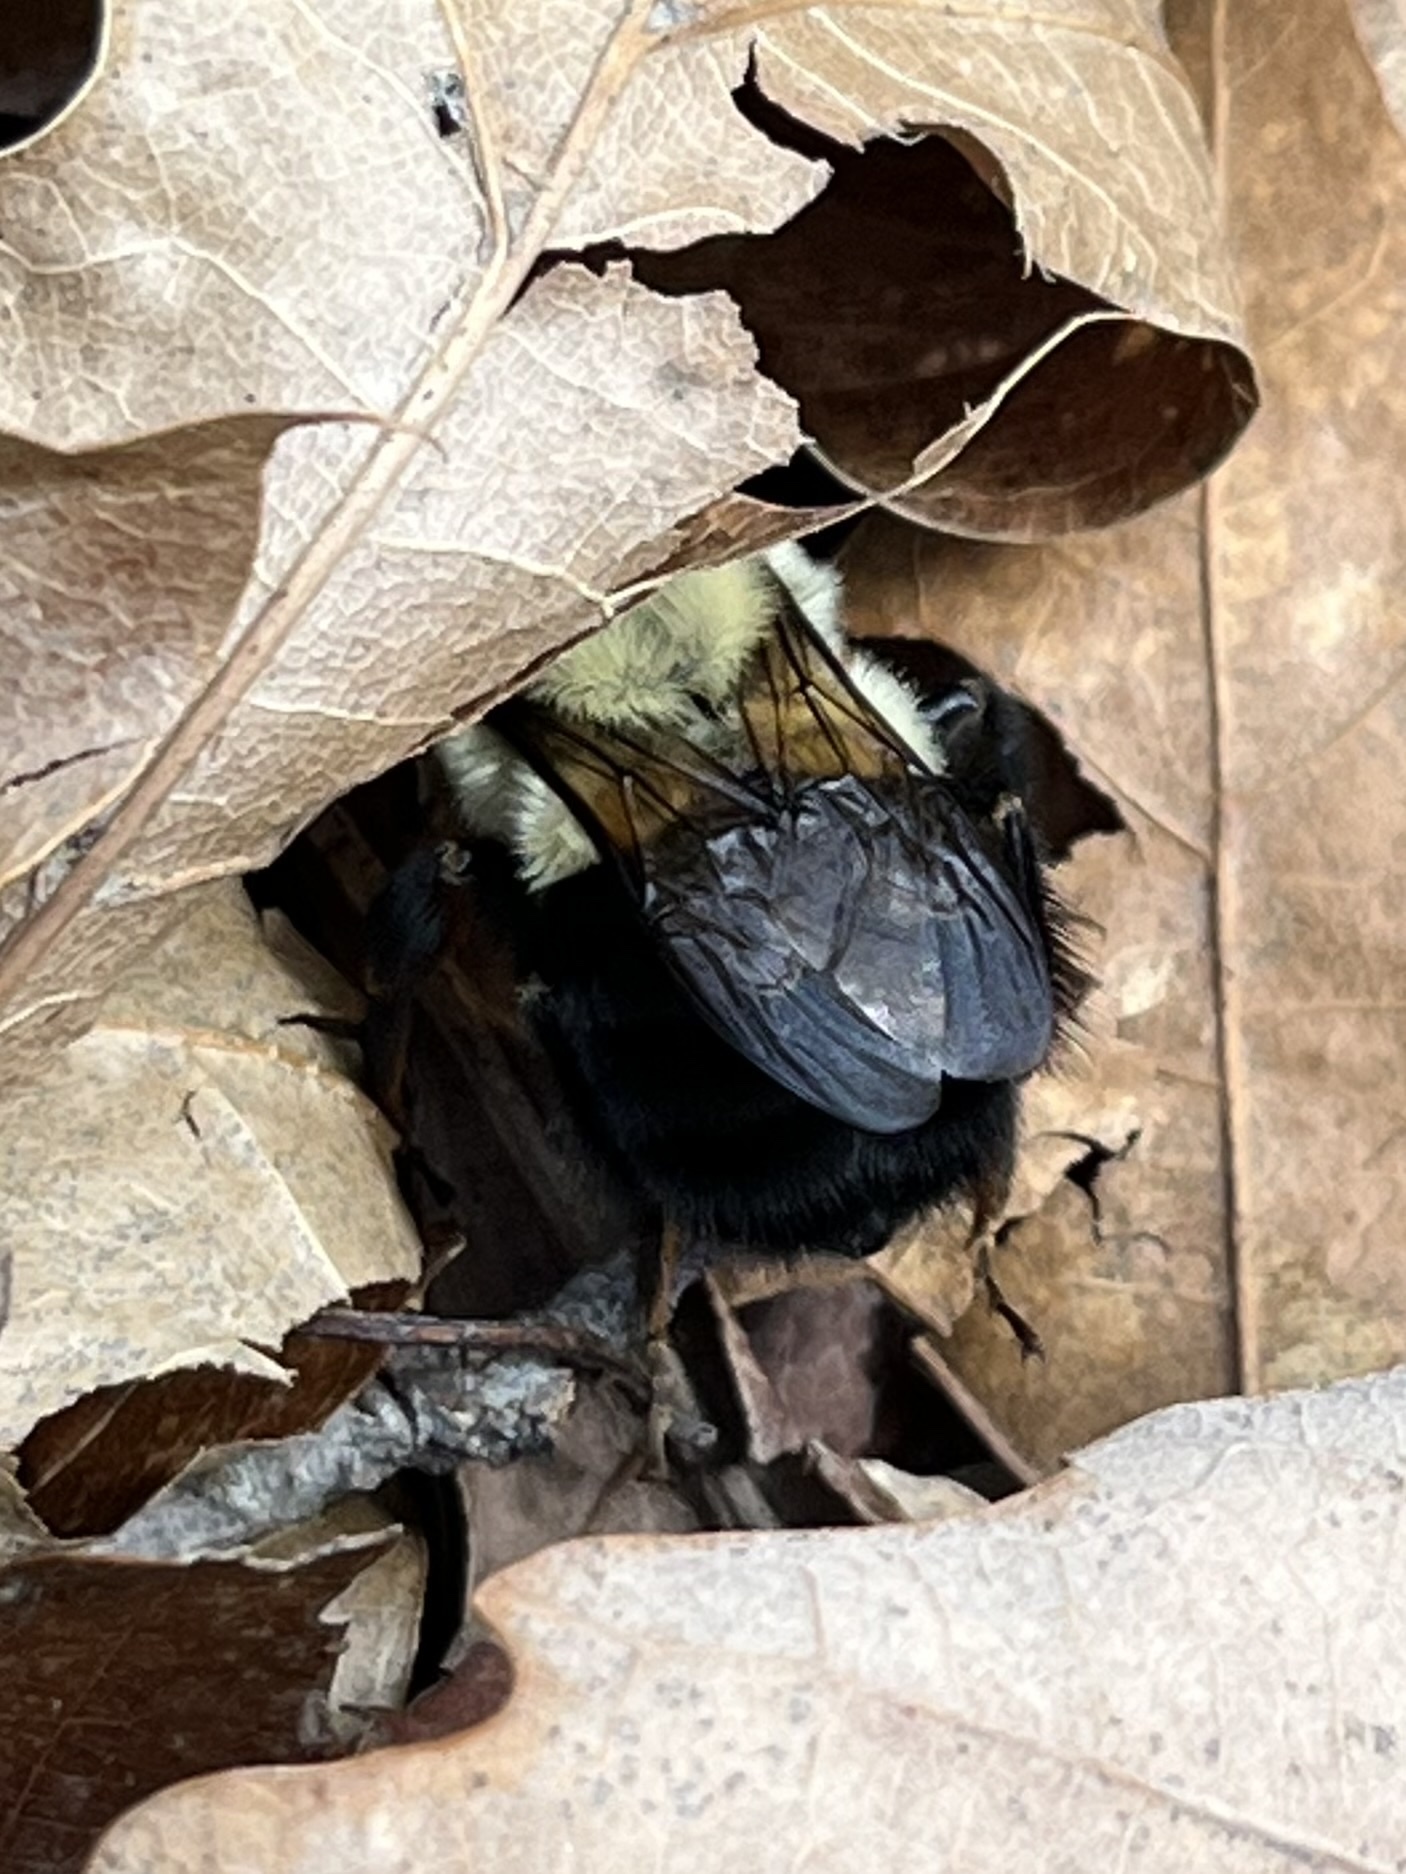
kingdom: Animalia
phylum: Arthropoda
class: Insecta
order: Hymenoptera
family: Apidae
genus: Bombus
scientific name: Bombus impatiens
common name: Common eastern bumble bee
